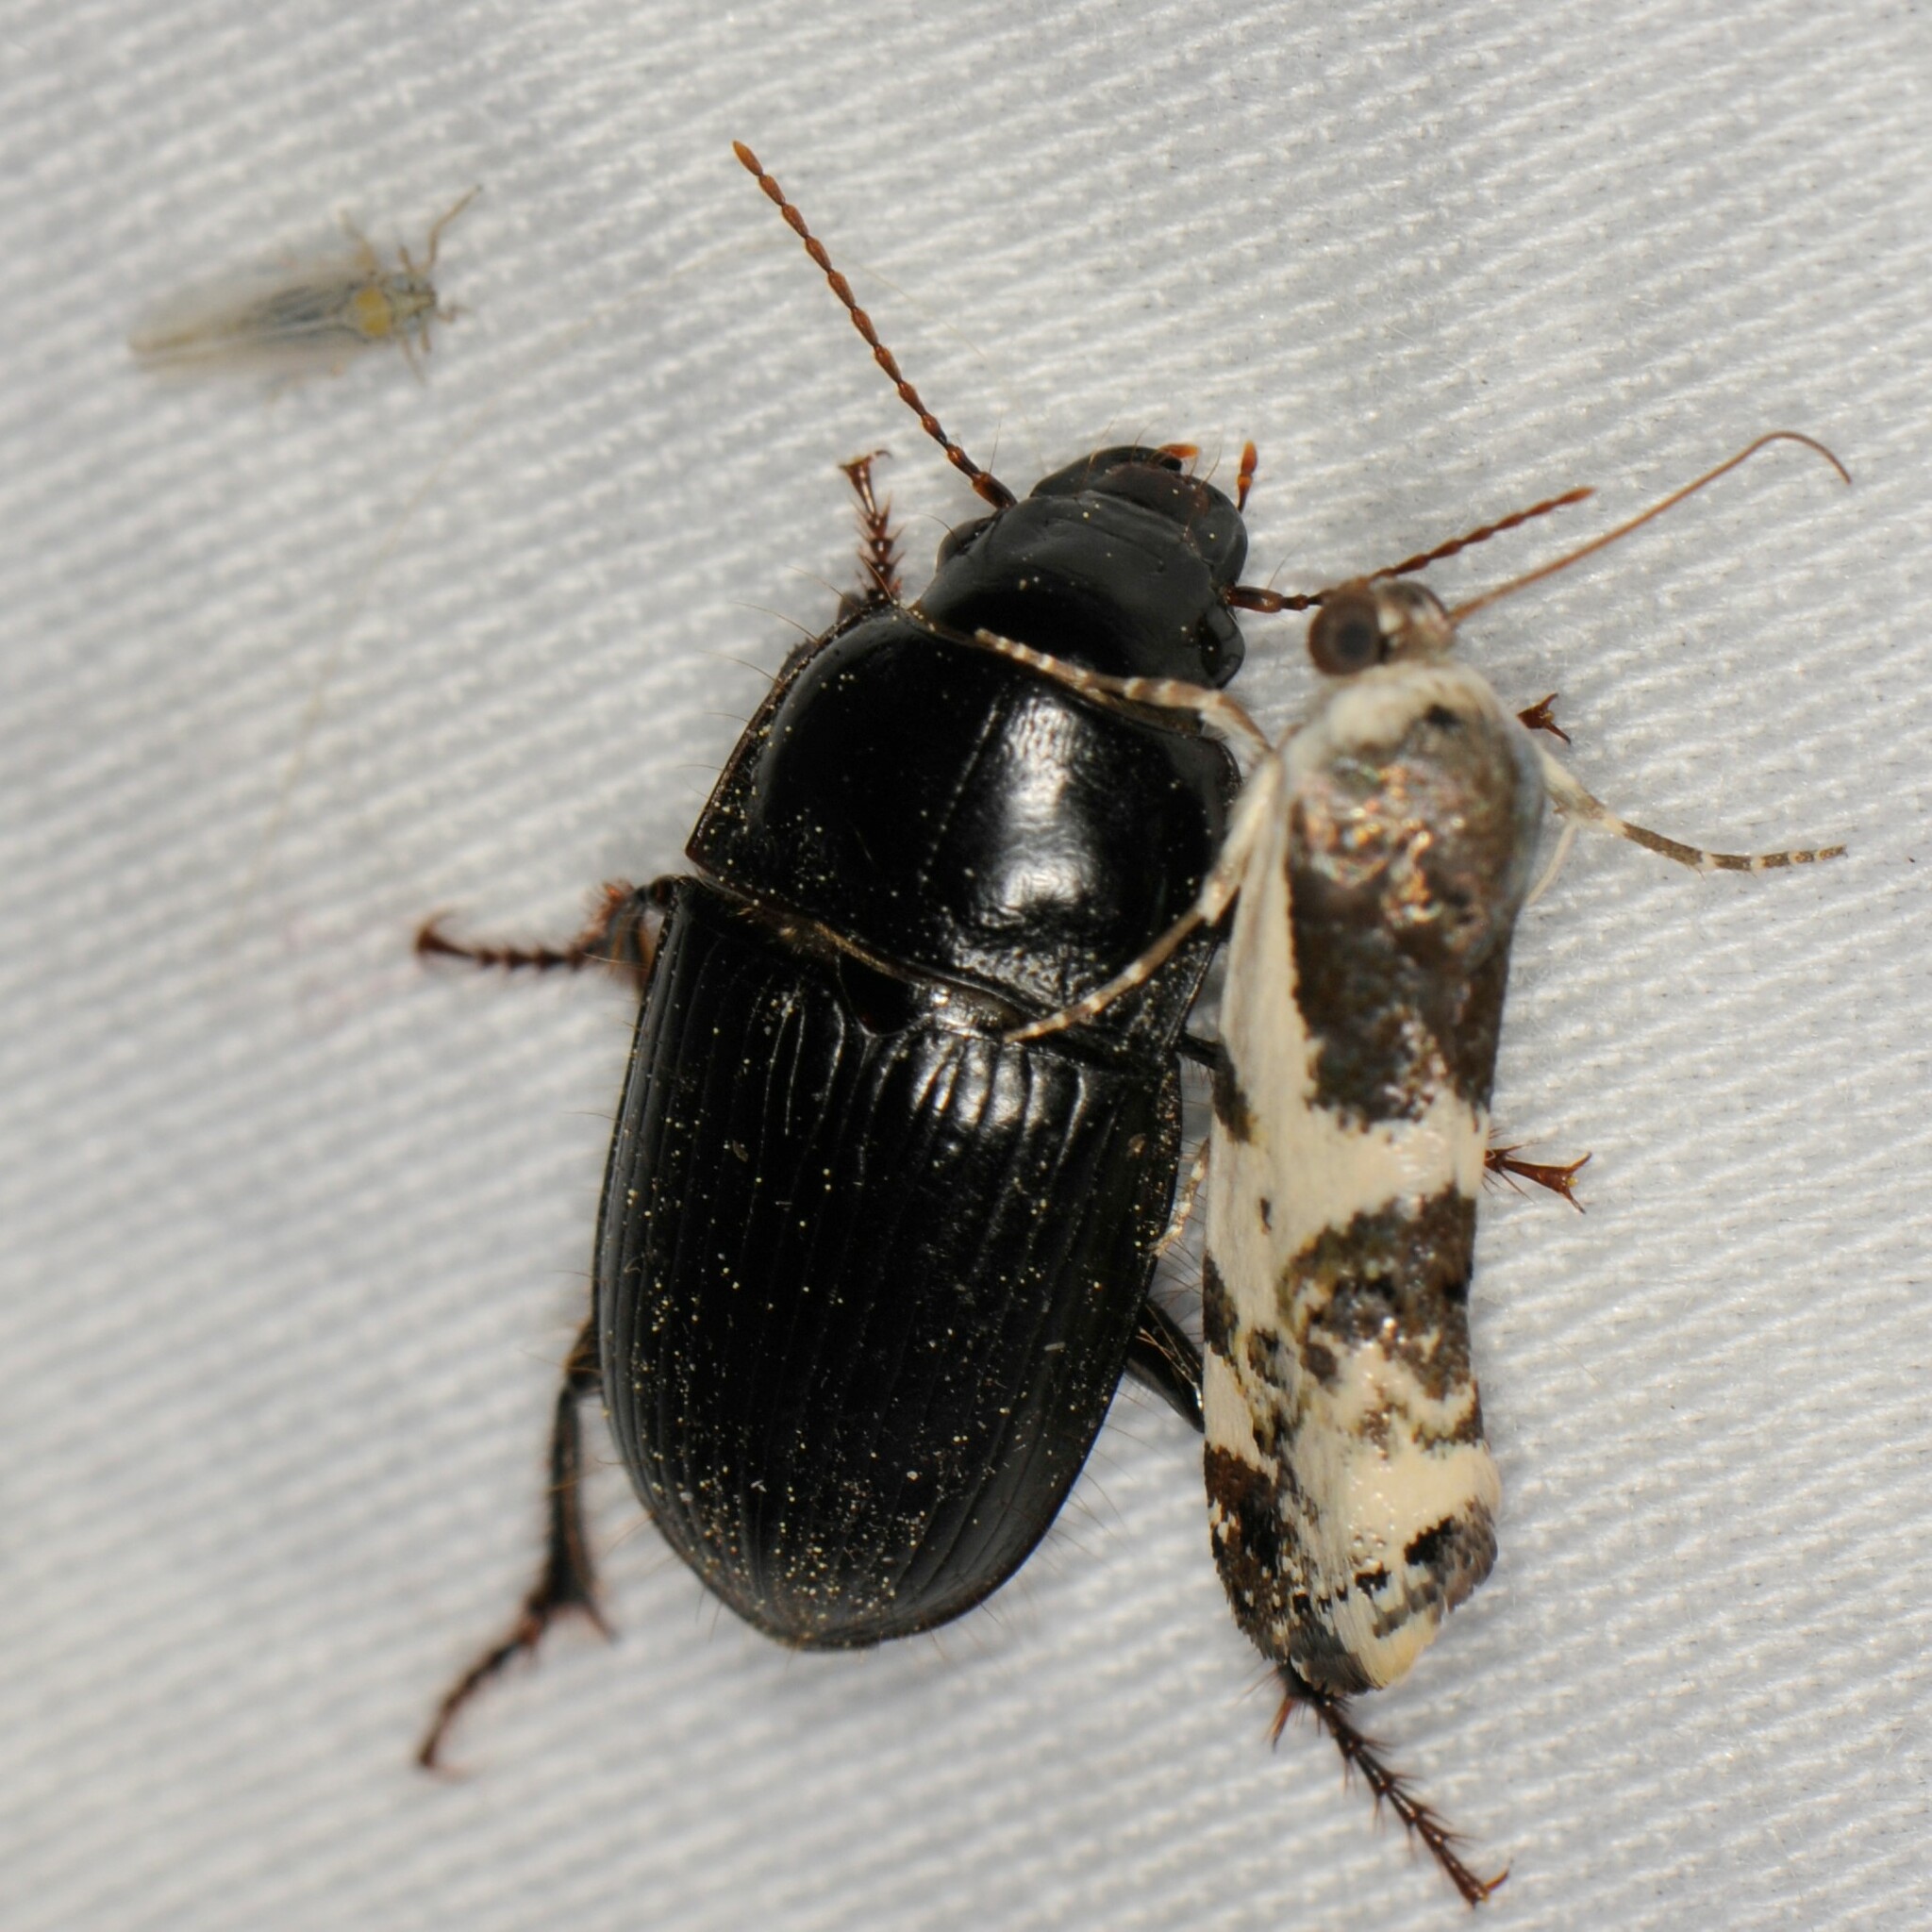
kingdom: Animalia
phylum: Arthropoda
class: Insecta
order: Coleoptera
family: Carabidae
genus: Euryderus
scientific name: Euryderus grossus
